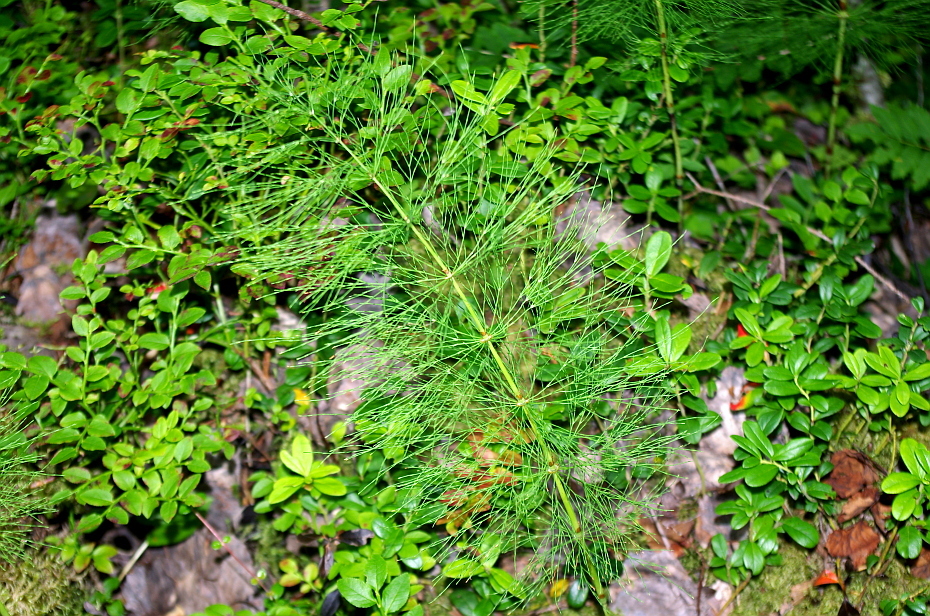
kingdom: Plantae
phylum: Tracheophyta
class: Polypodiopsida
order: Equisetales
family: Equisetaceae
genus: Equisetum
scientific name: Equisetum sylvaticum
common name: Wood horsetail
